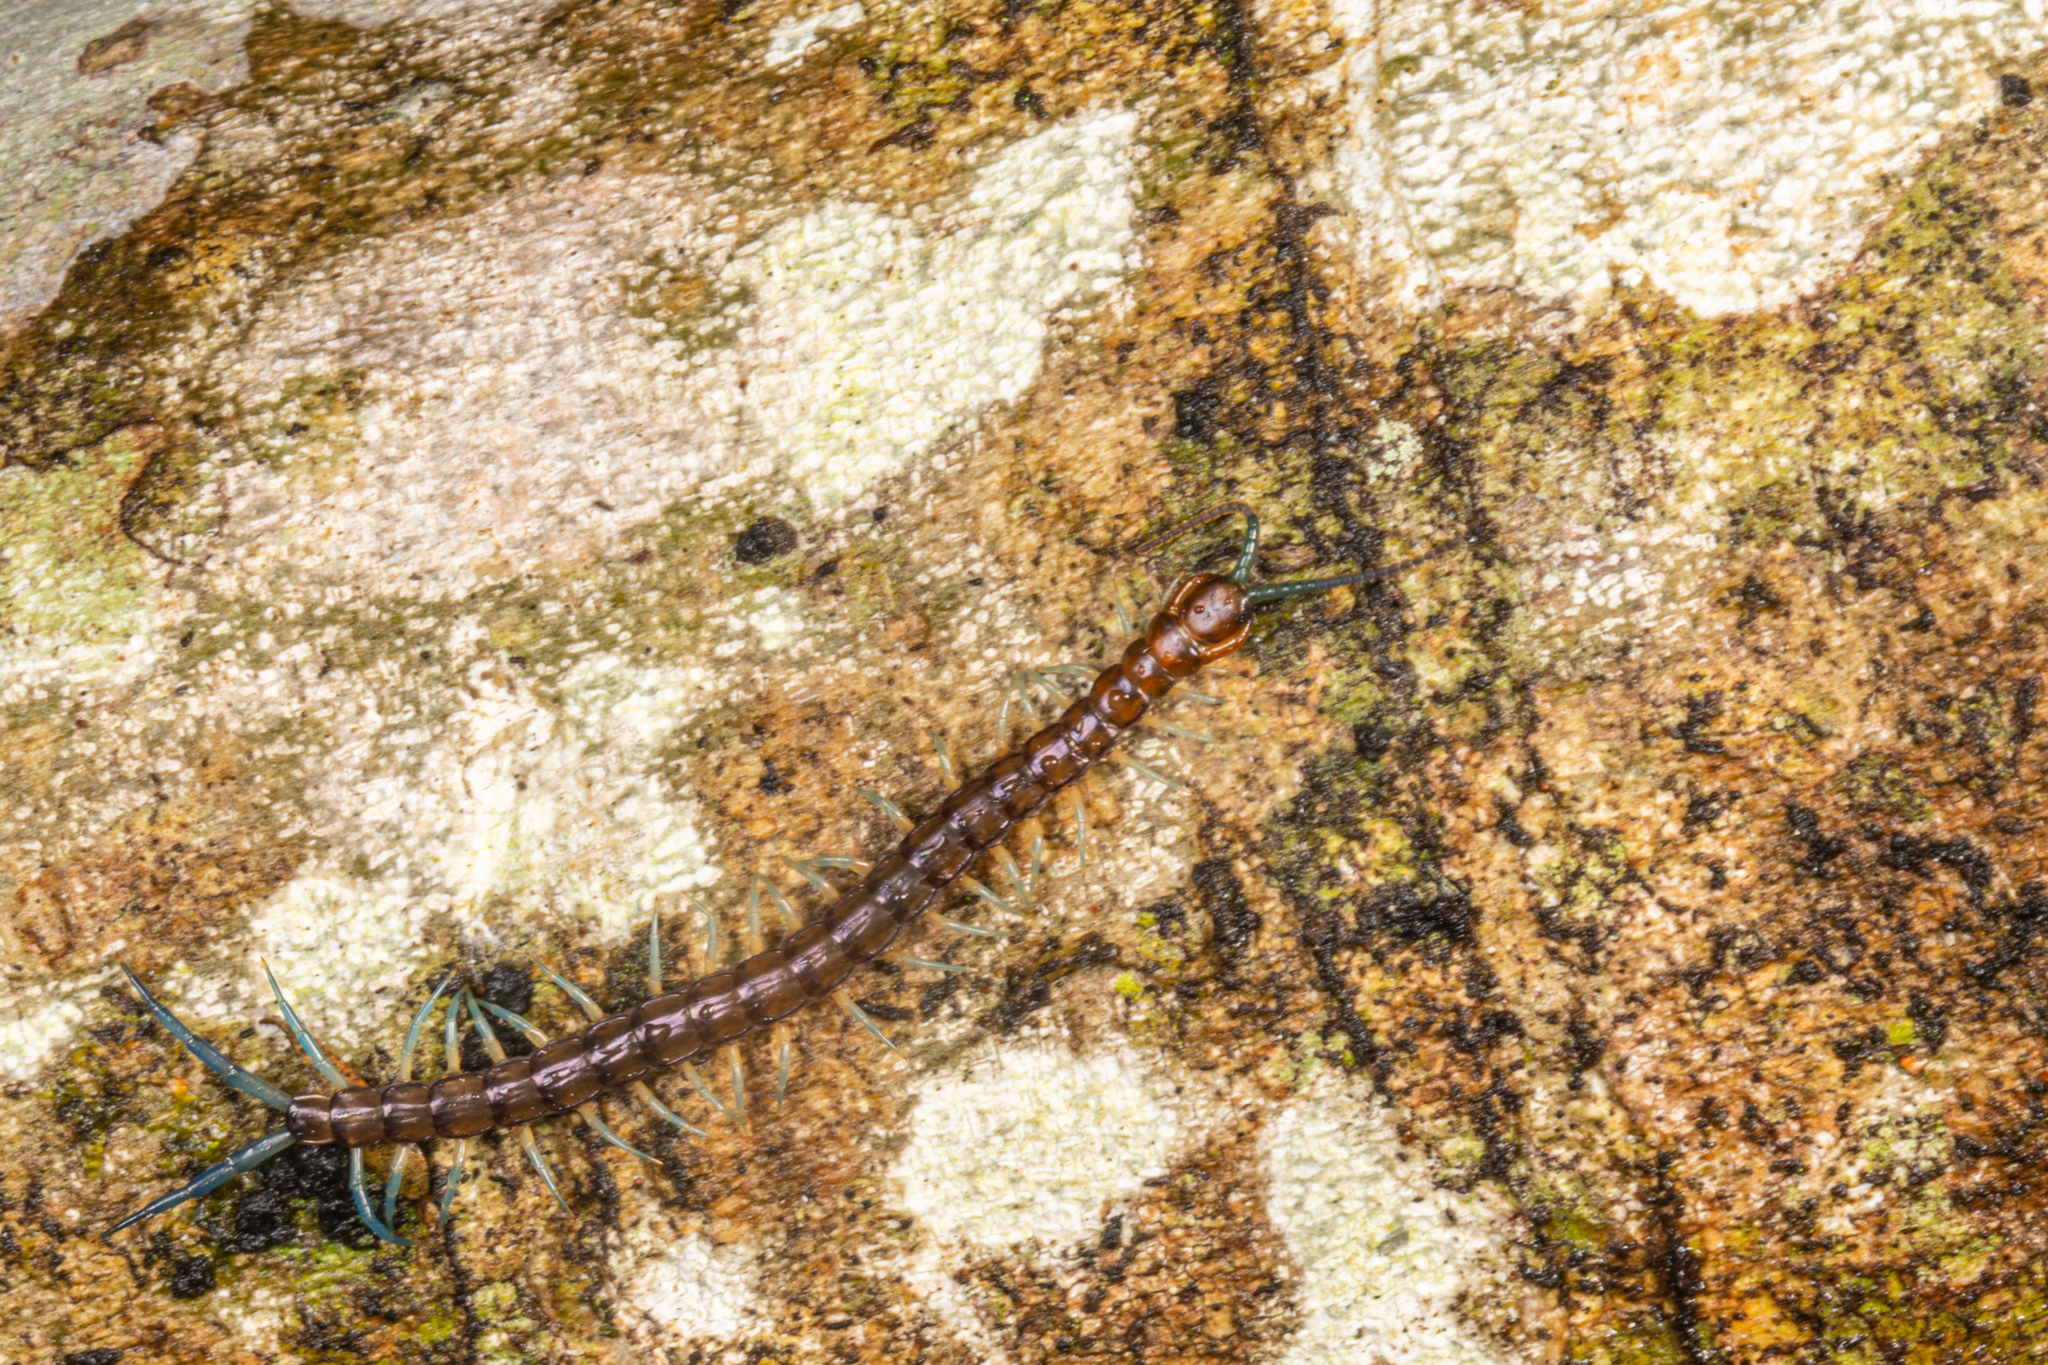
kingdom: Animalia
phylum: Arthropoda
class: Chilopoda
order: Scolopendromorpha
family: Scolopendridae
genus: Cormocephalus
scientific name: Cormocephalus rubriceps
